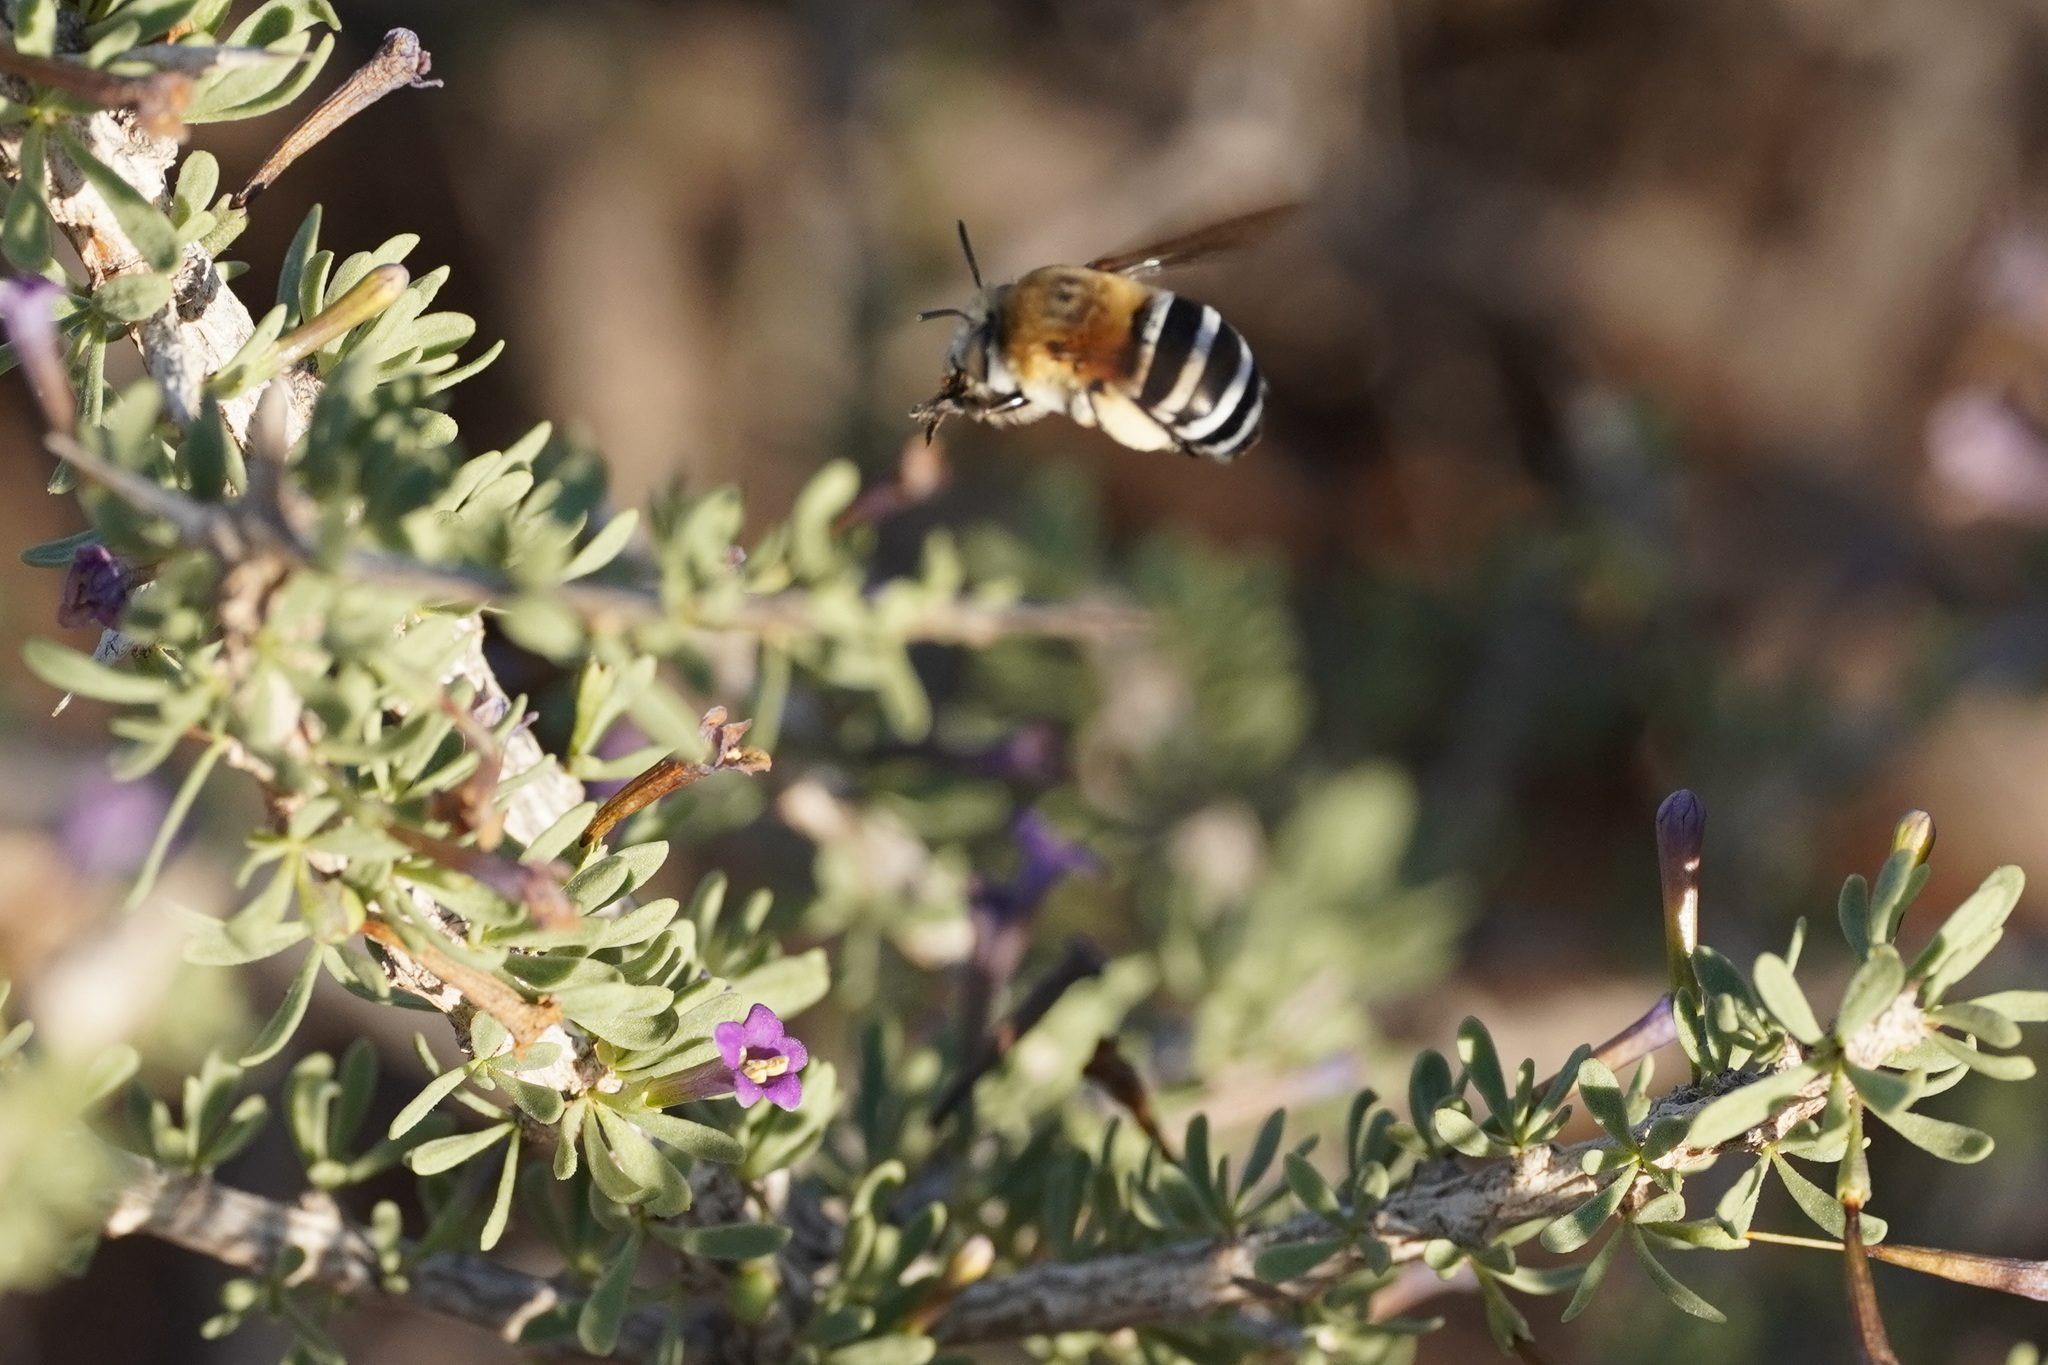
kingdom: Animalia
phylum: Arthropoda
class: Insecta
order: Hymenoptera
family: Apidae
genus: Amegilla
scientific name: Amegilla quadrifasciata
